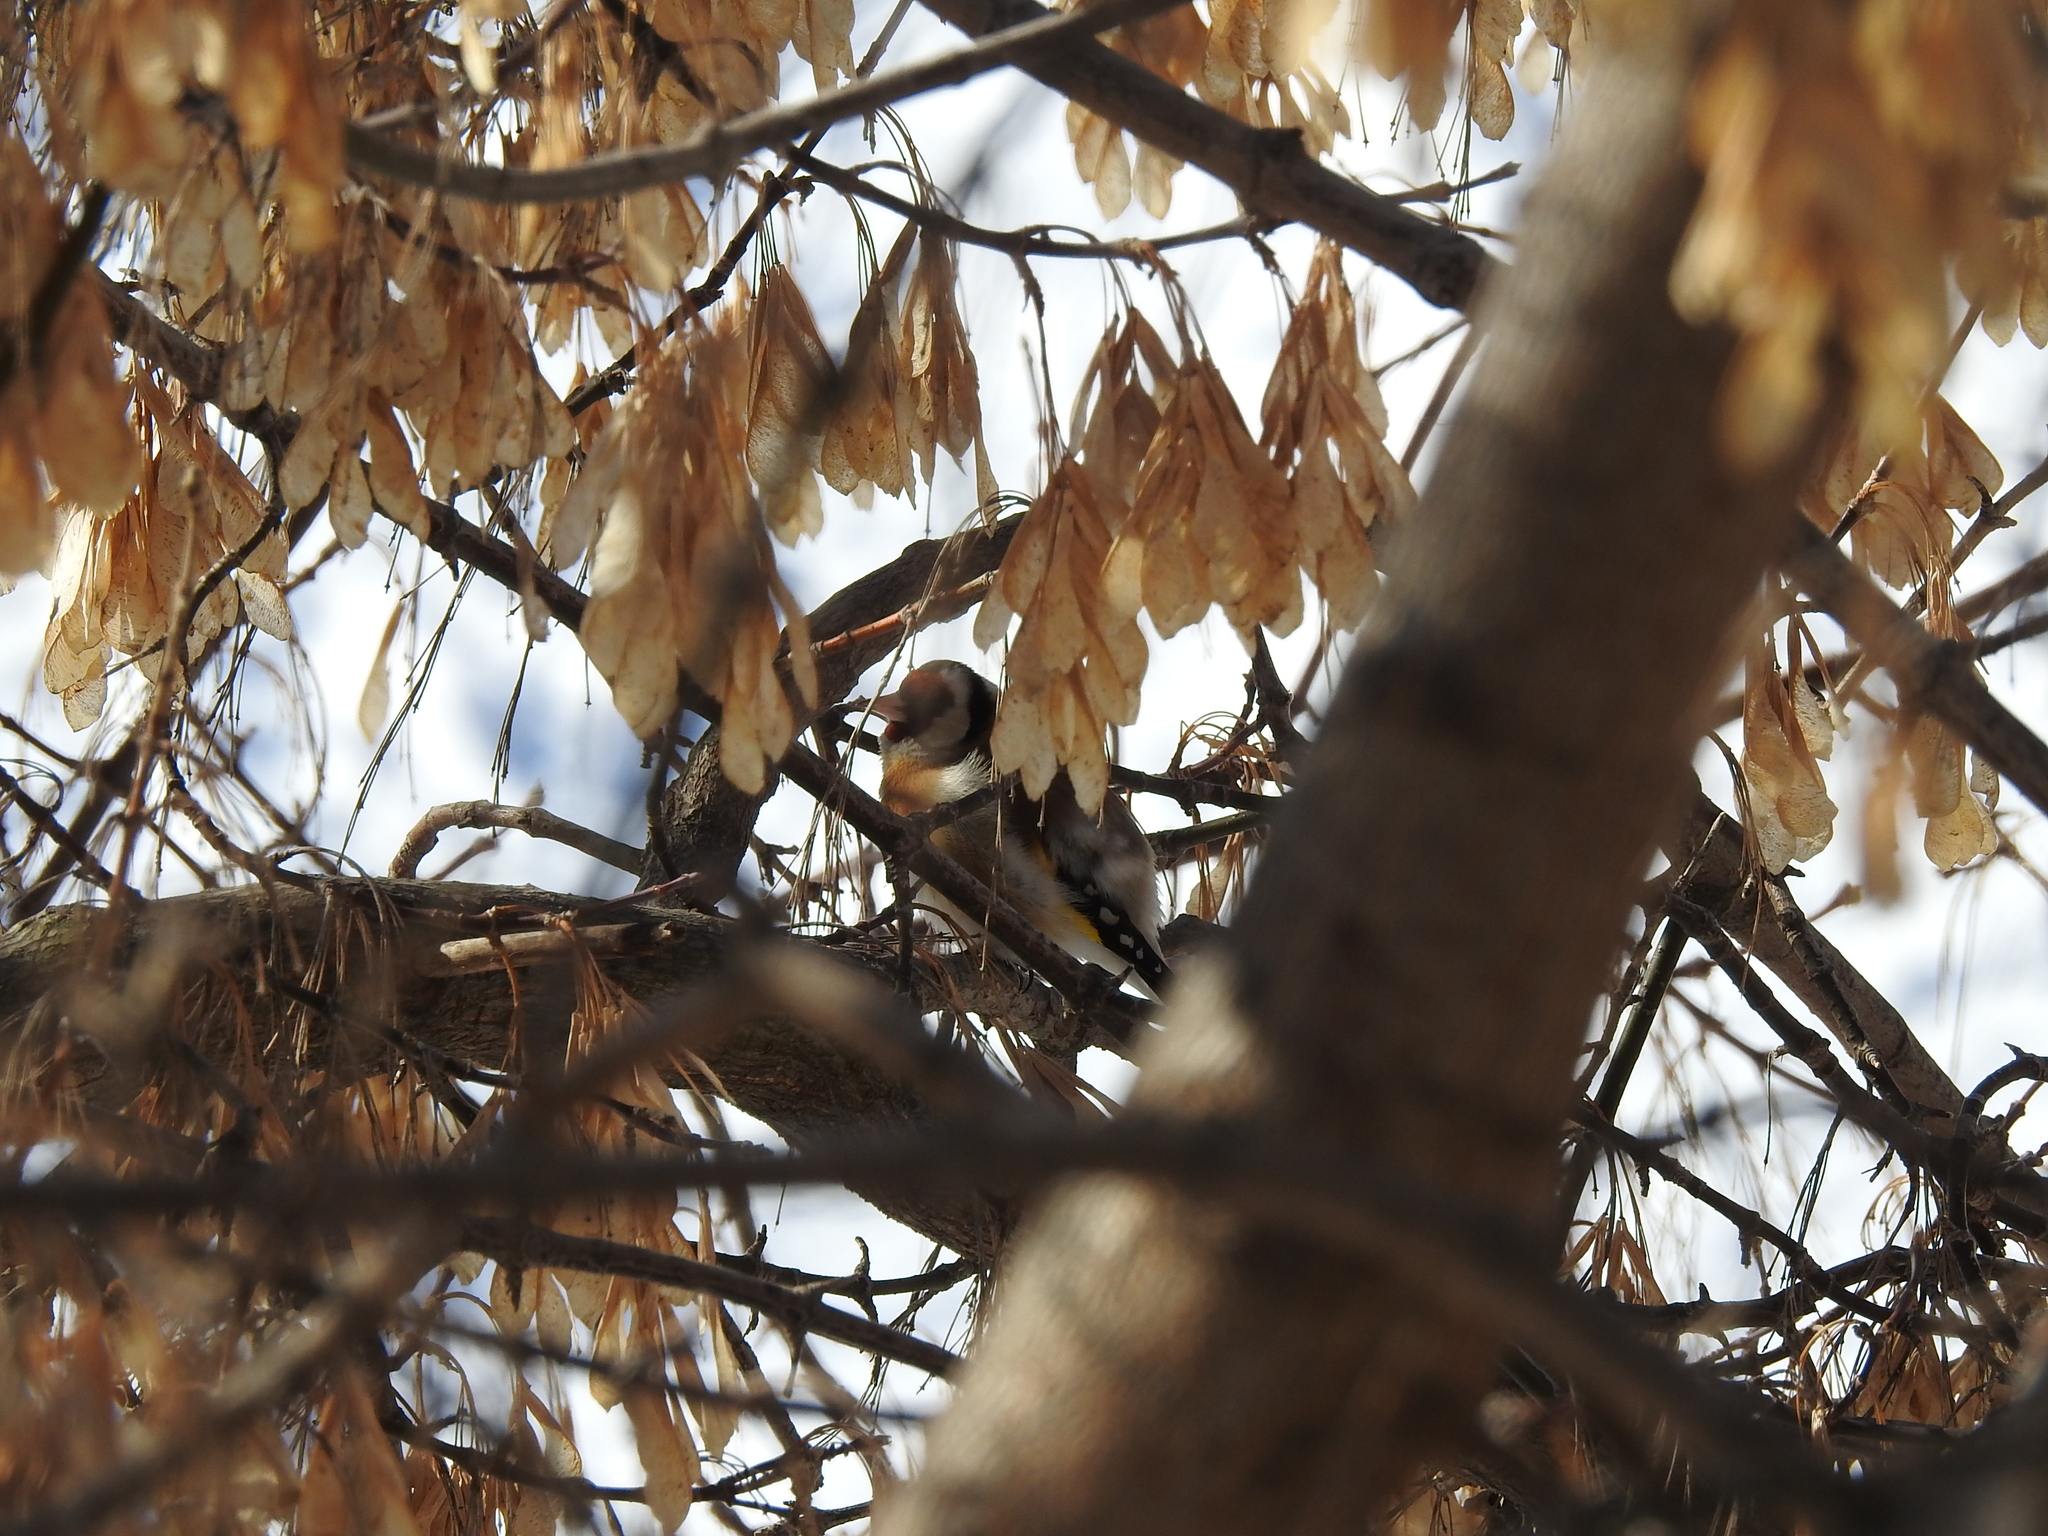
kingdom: Animalia
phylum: Chordata
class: Aves
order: Passeriformes
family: Fringillidae
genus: Carduelis
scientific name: Carduelis carduelis
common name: European goldfinch
